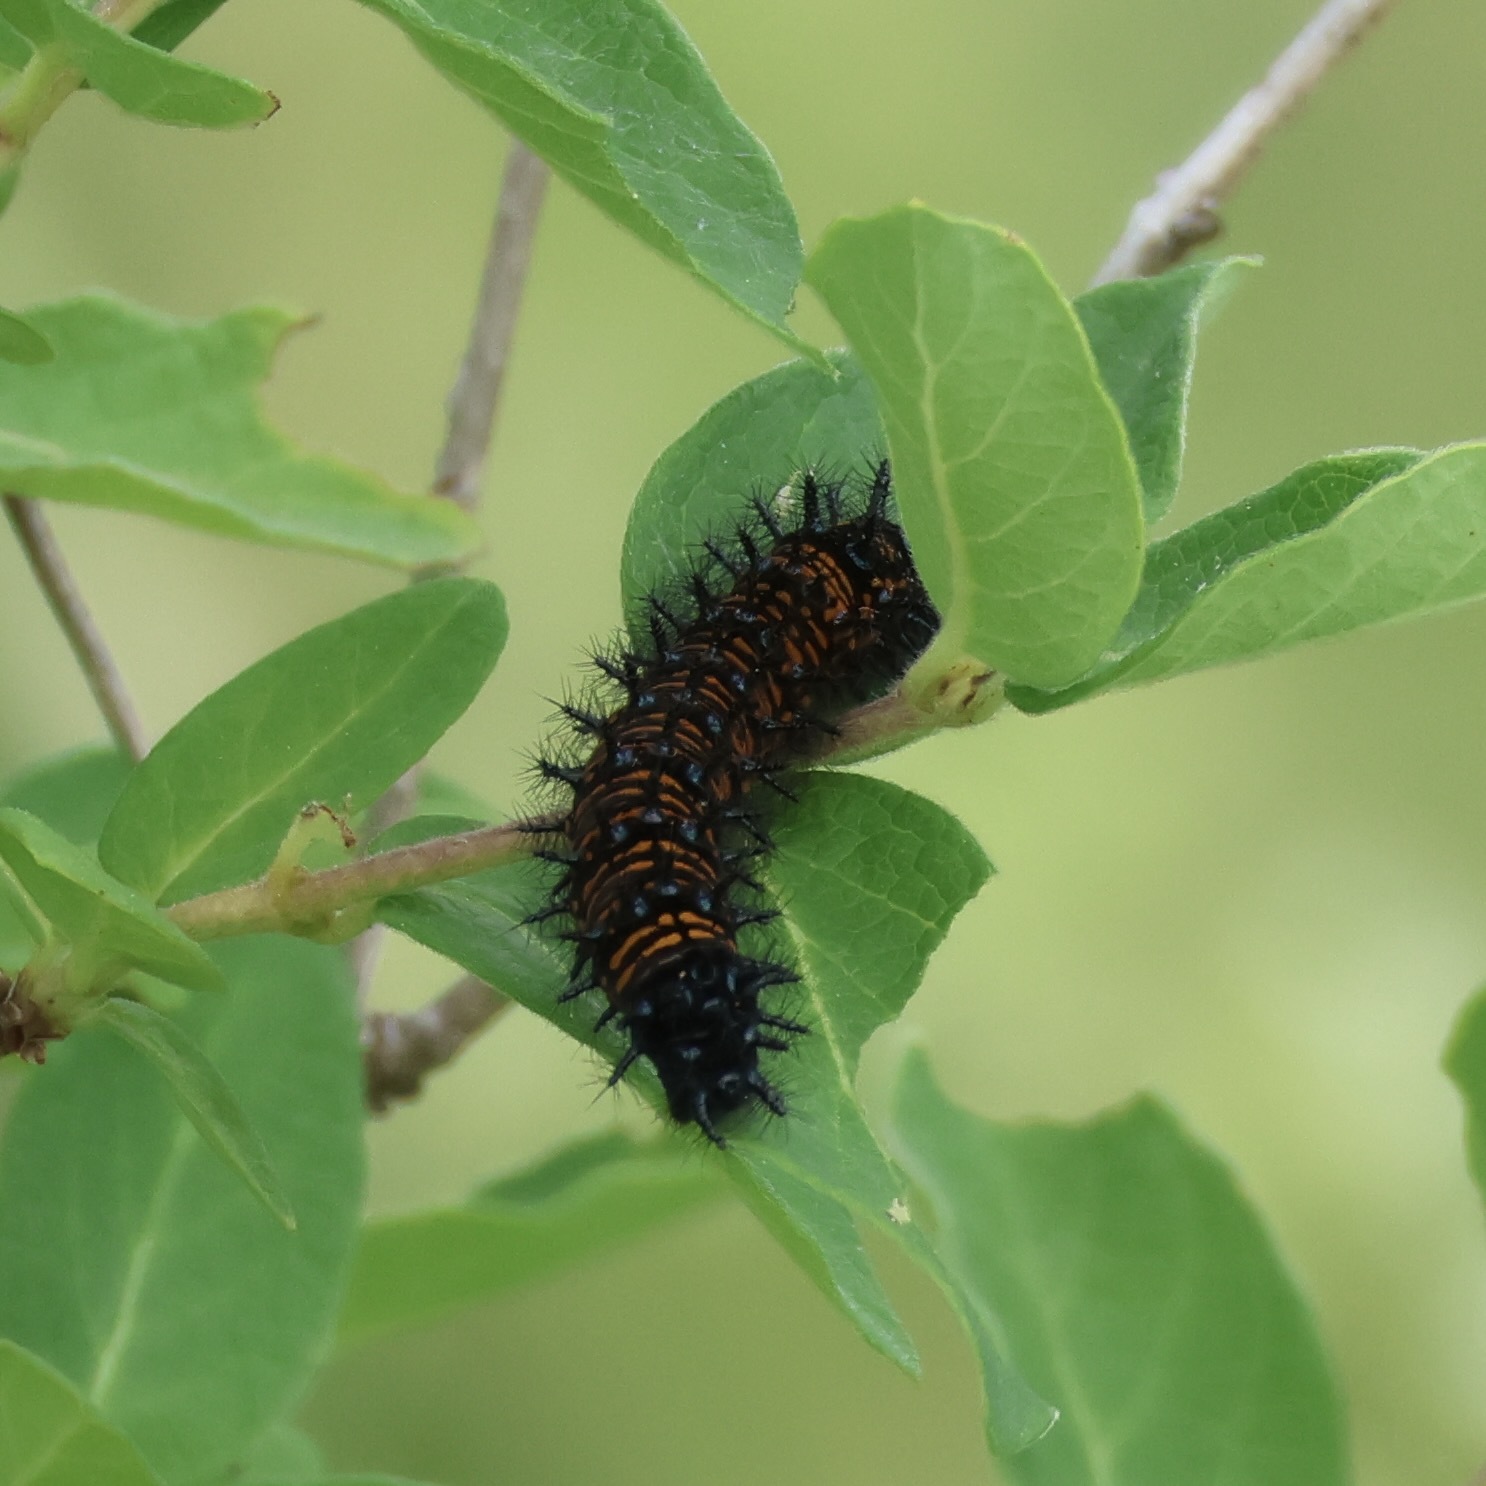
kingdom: Animalia
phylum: Arthropoda
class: Insecta
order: Lepidoptera
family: Nymphalidae
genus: Euphydryas
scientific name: Euphydryas phaeton
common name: Baltimore checkerspot
